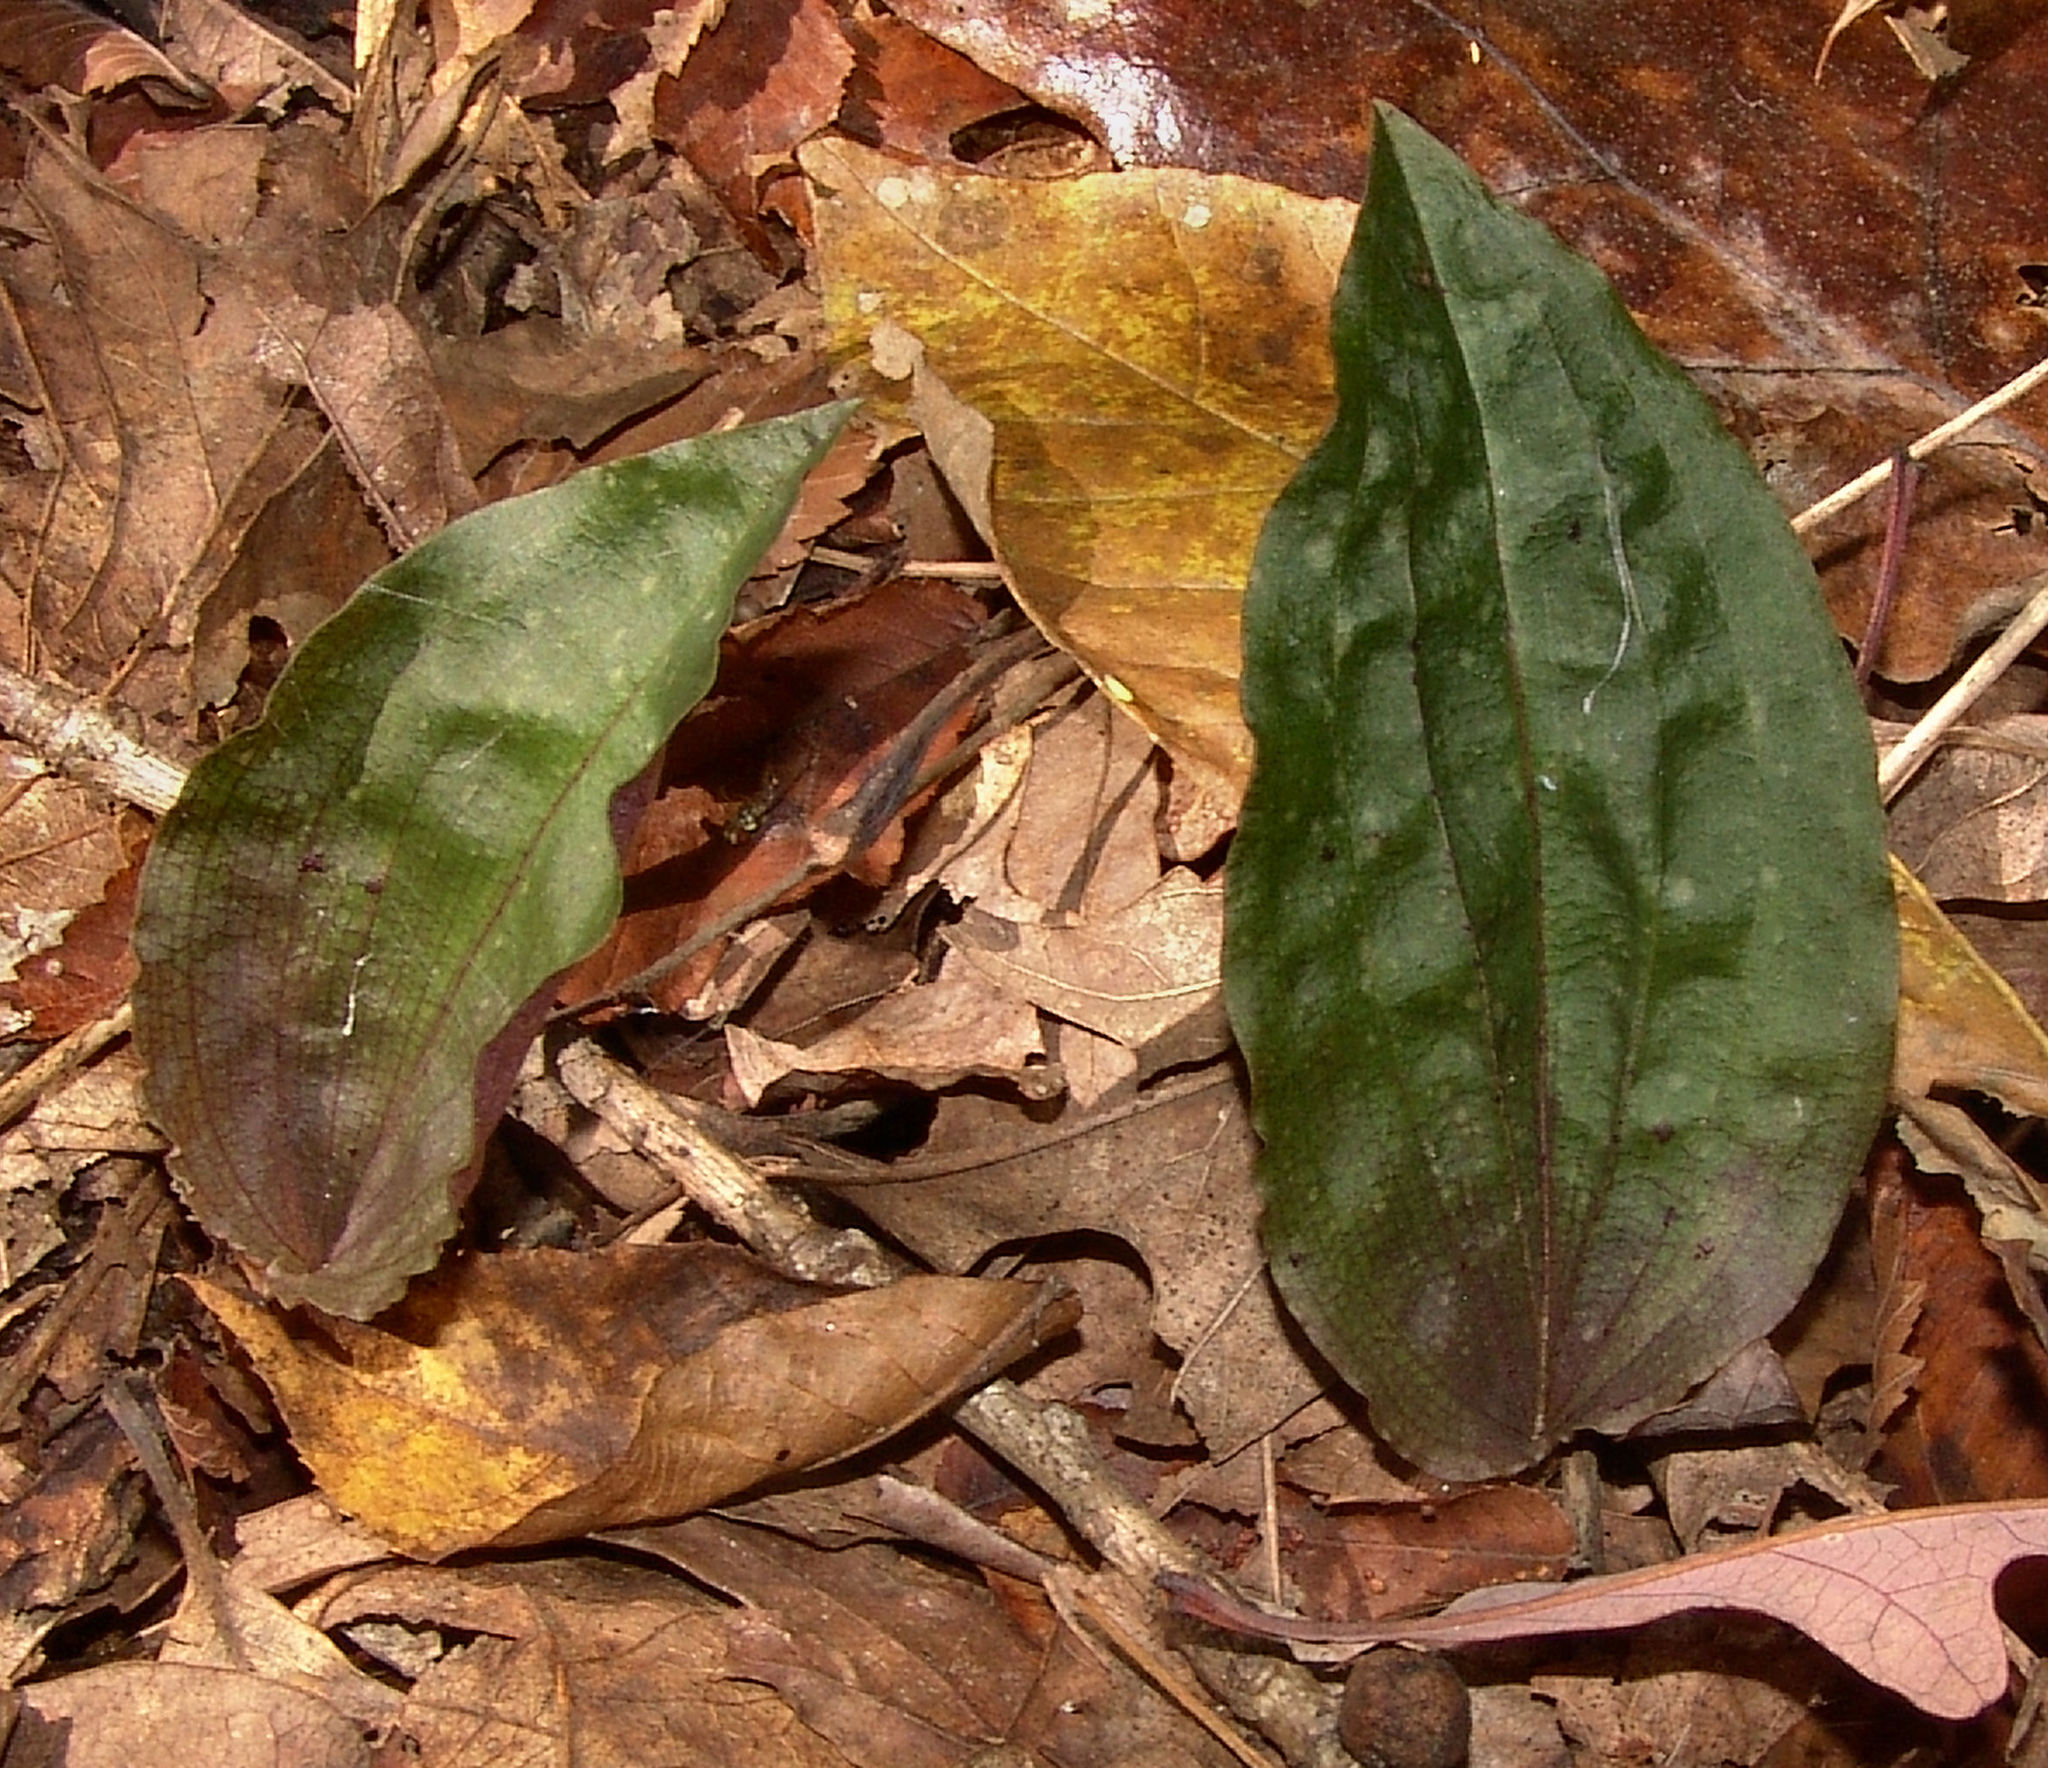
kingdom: Plantae
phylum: Tracheophyta
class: Liliopsida
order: Asparagales
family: Orchidaceae
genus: Tipularia
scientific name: Tipularia discolor
